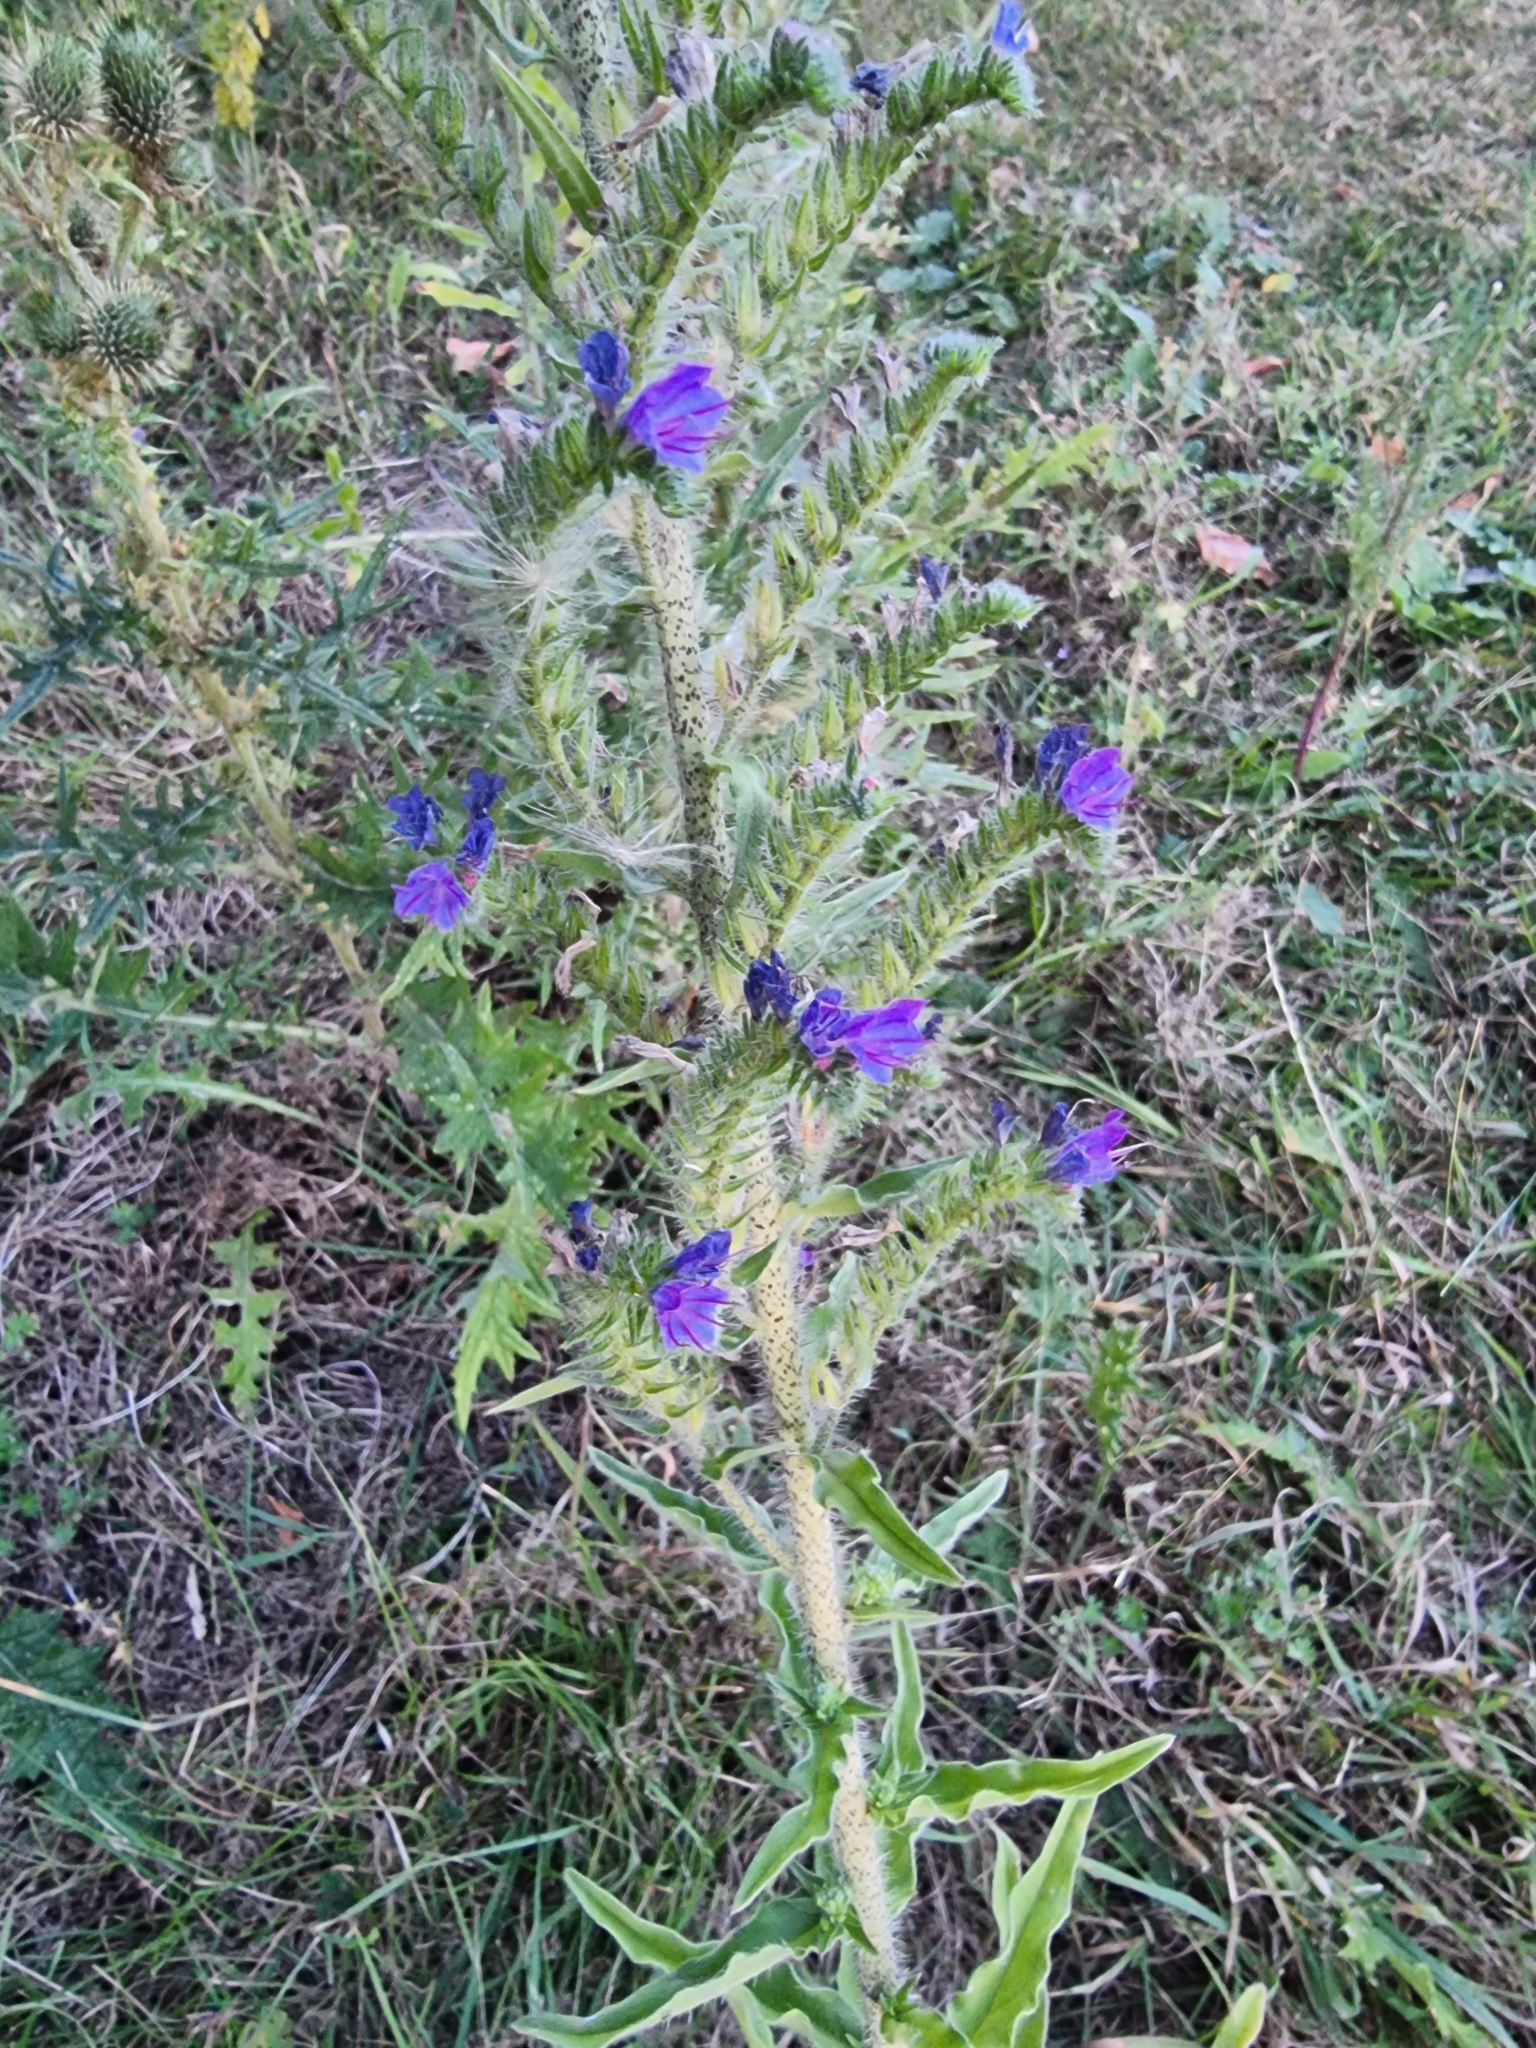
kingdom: Plantae
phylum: Tracheophyta
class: Magnoliopsida
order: Boraginales
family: Boraginaceae
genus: Echium
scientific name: Echium vulgare
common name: Common viper's bugloss
